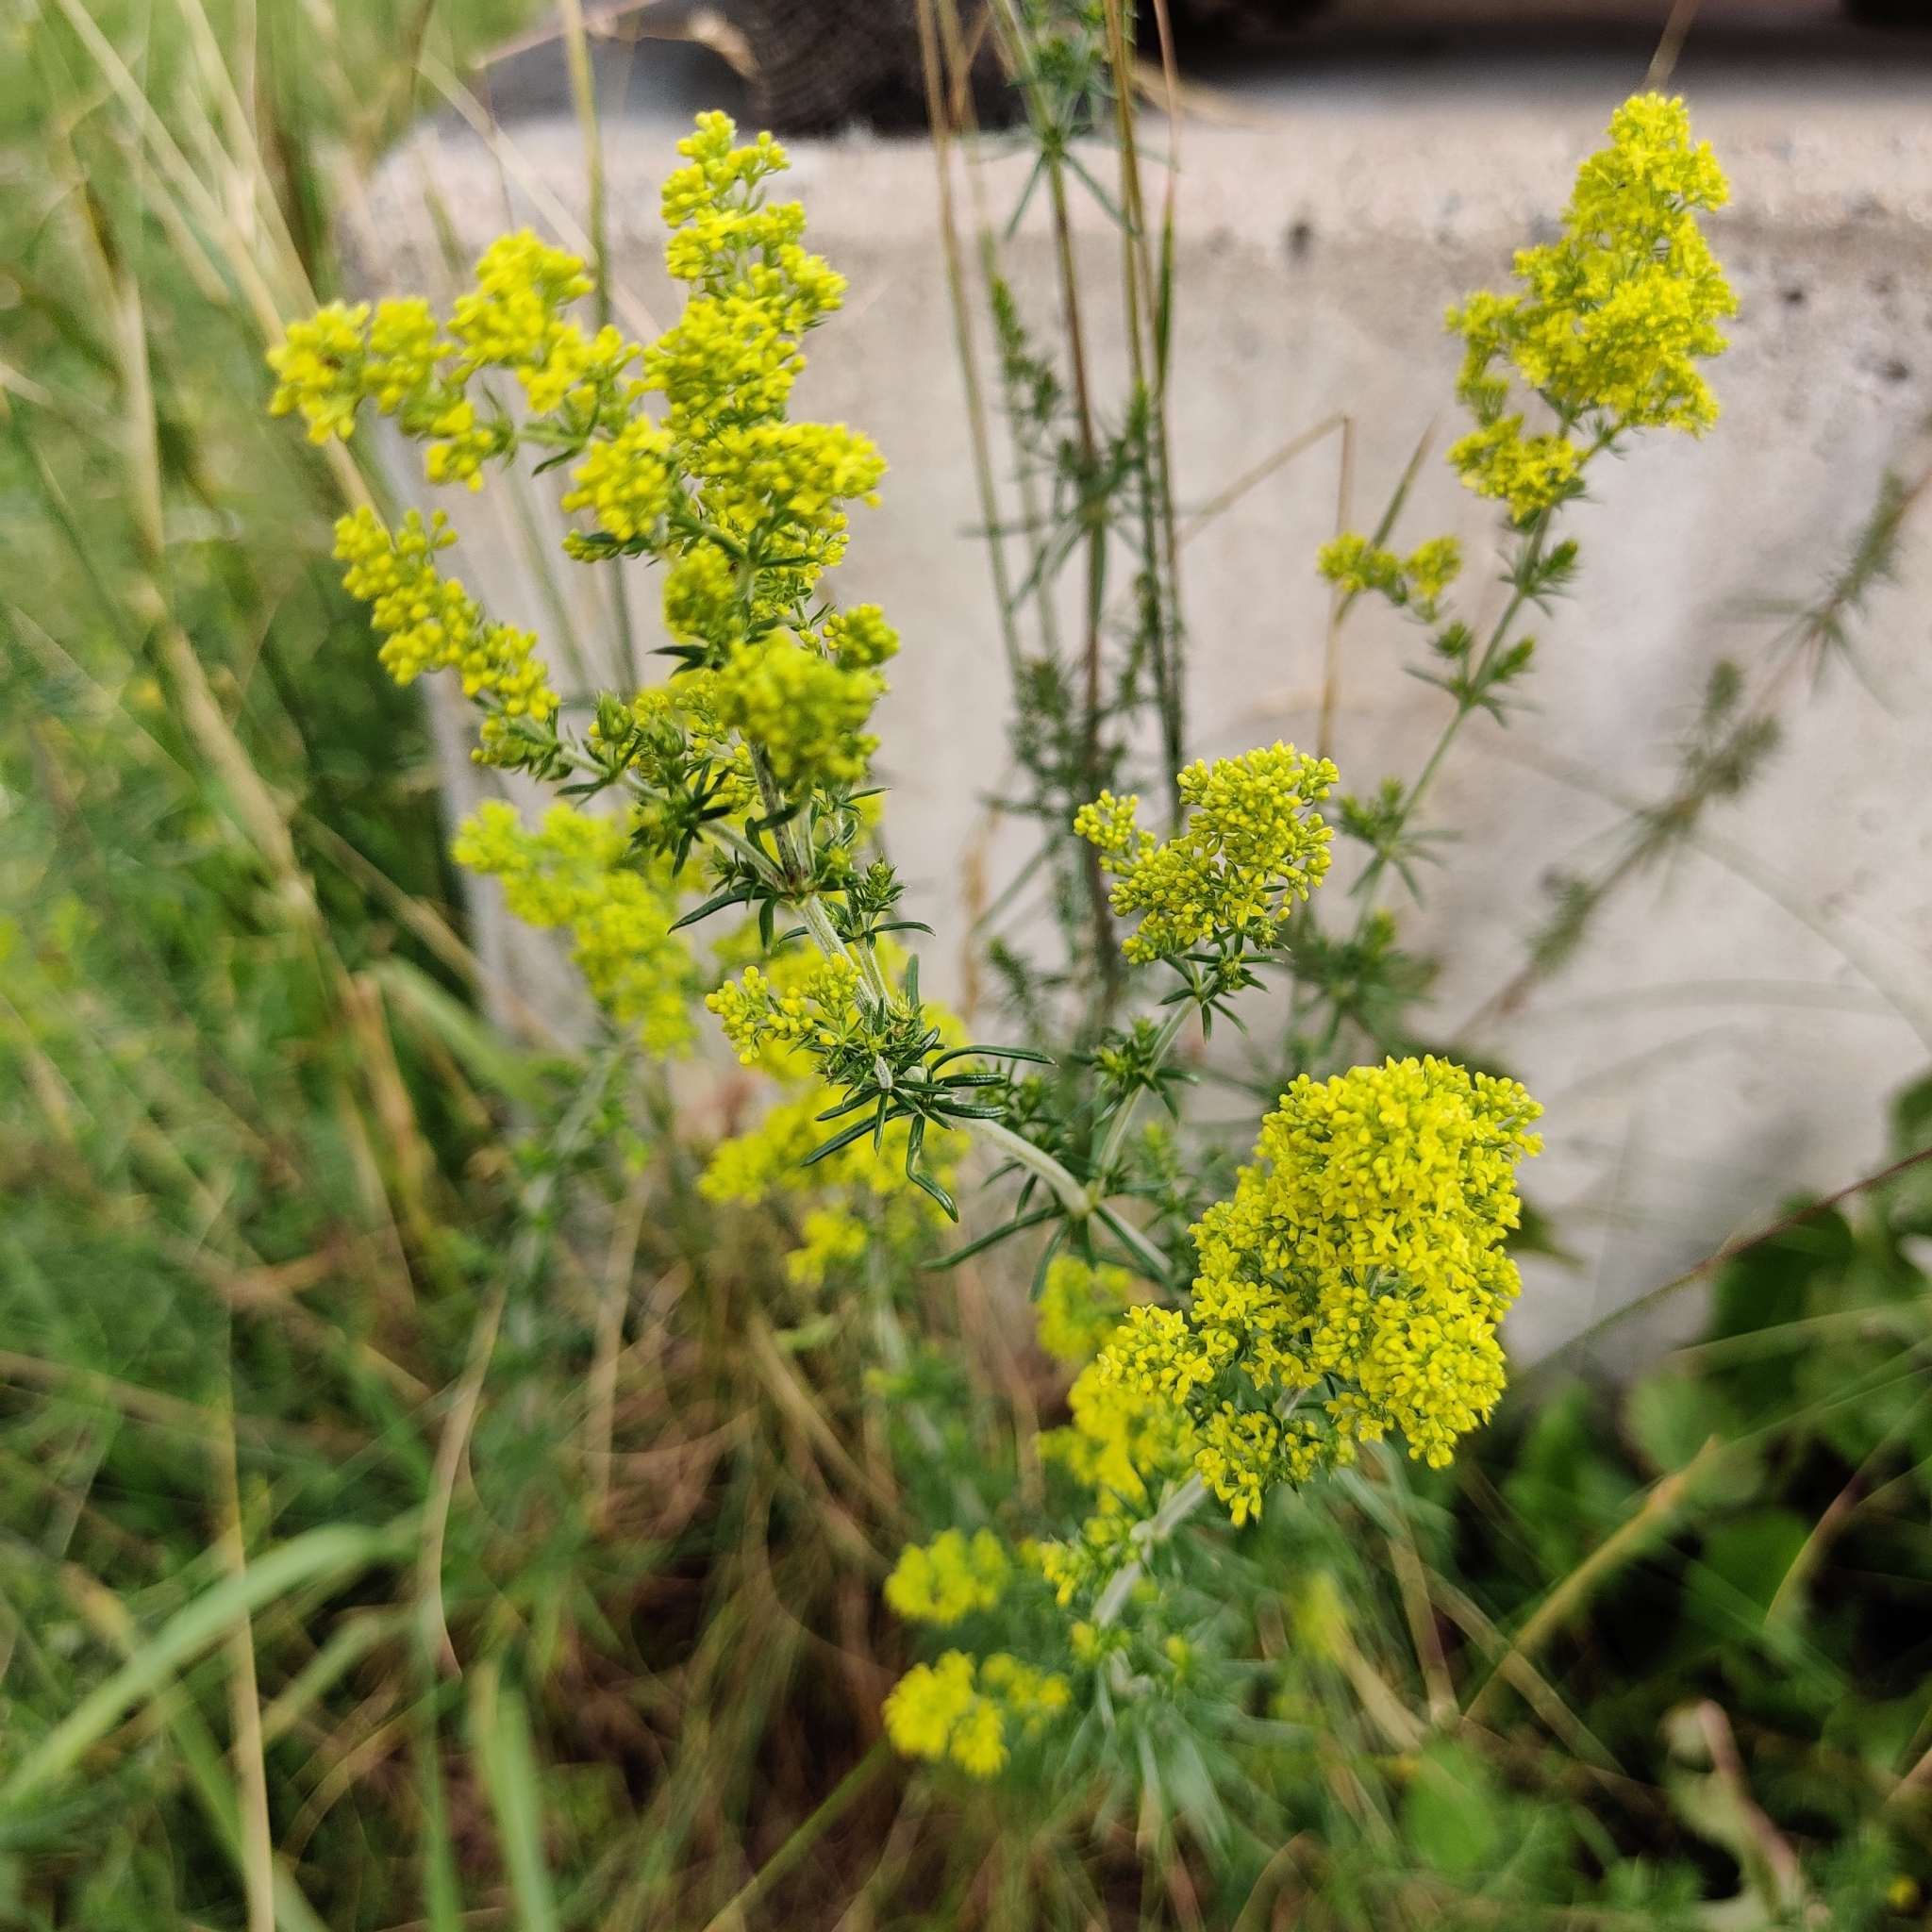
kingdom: Plantae
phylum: Tracheophyta
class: Magnoliopsida
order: Gentianales
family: Rubiaceae
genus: Galium
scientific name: Galium verum
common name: Lady's bedstraw
